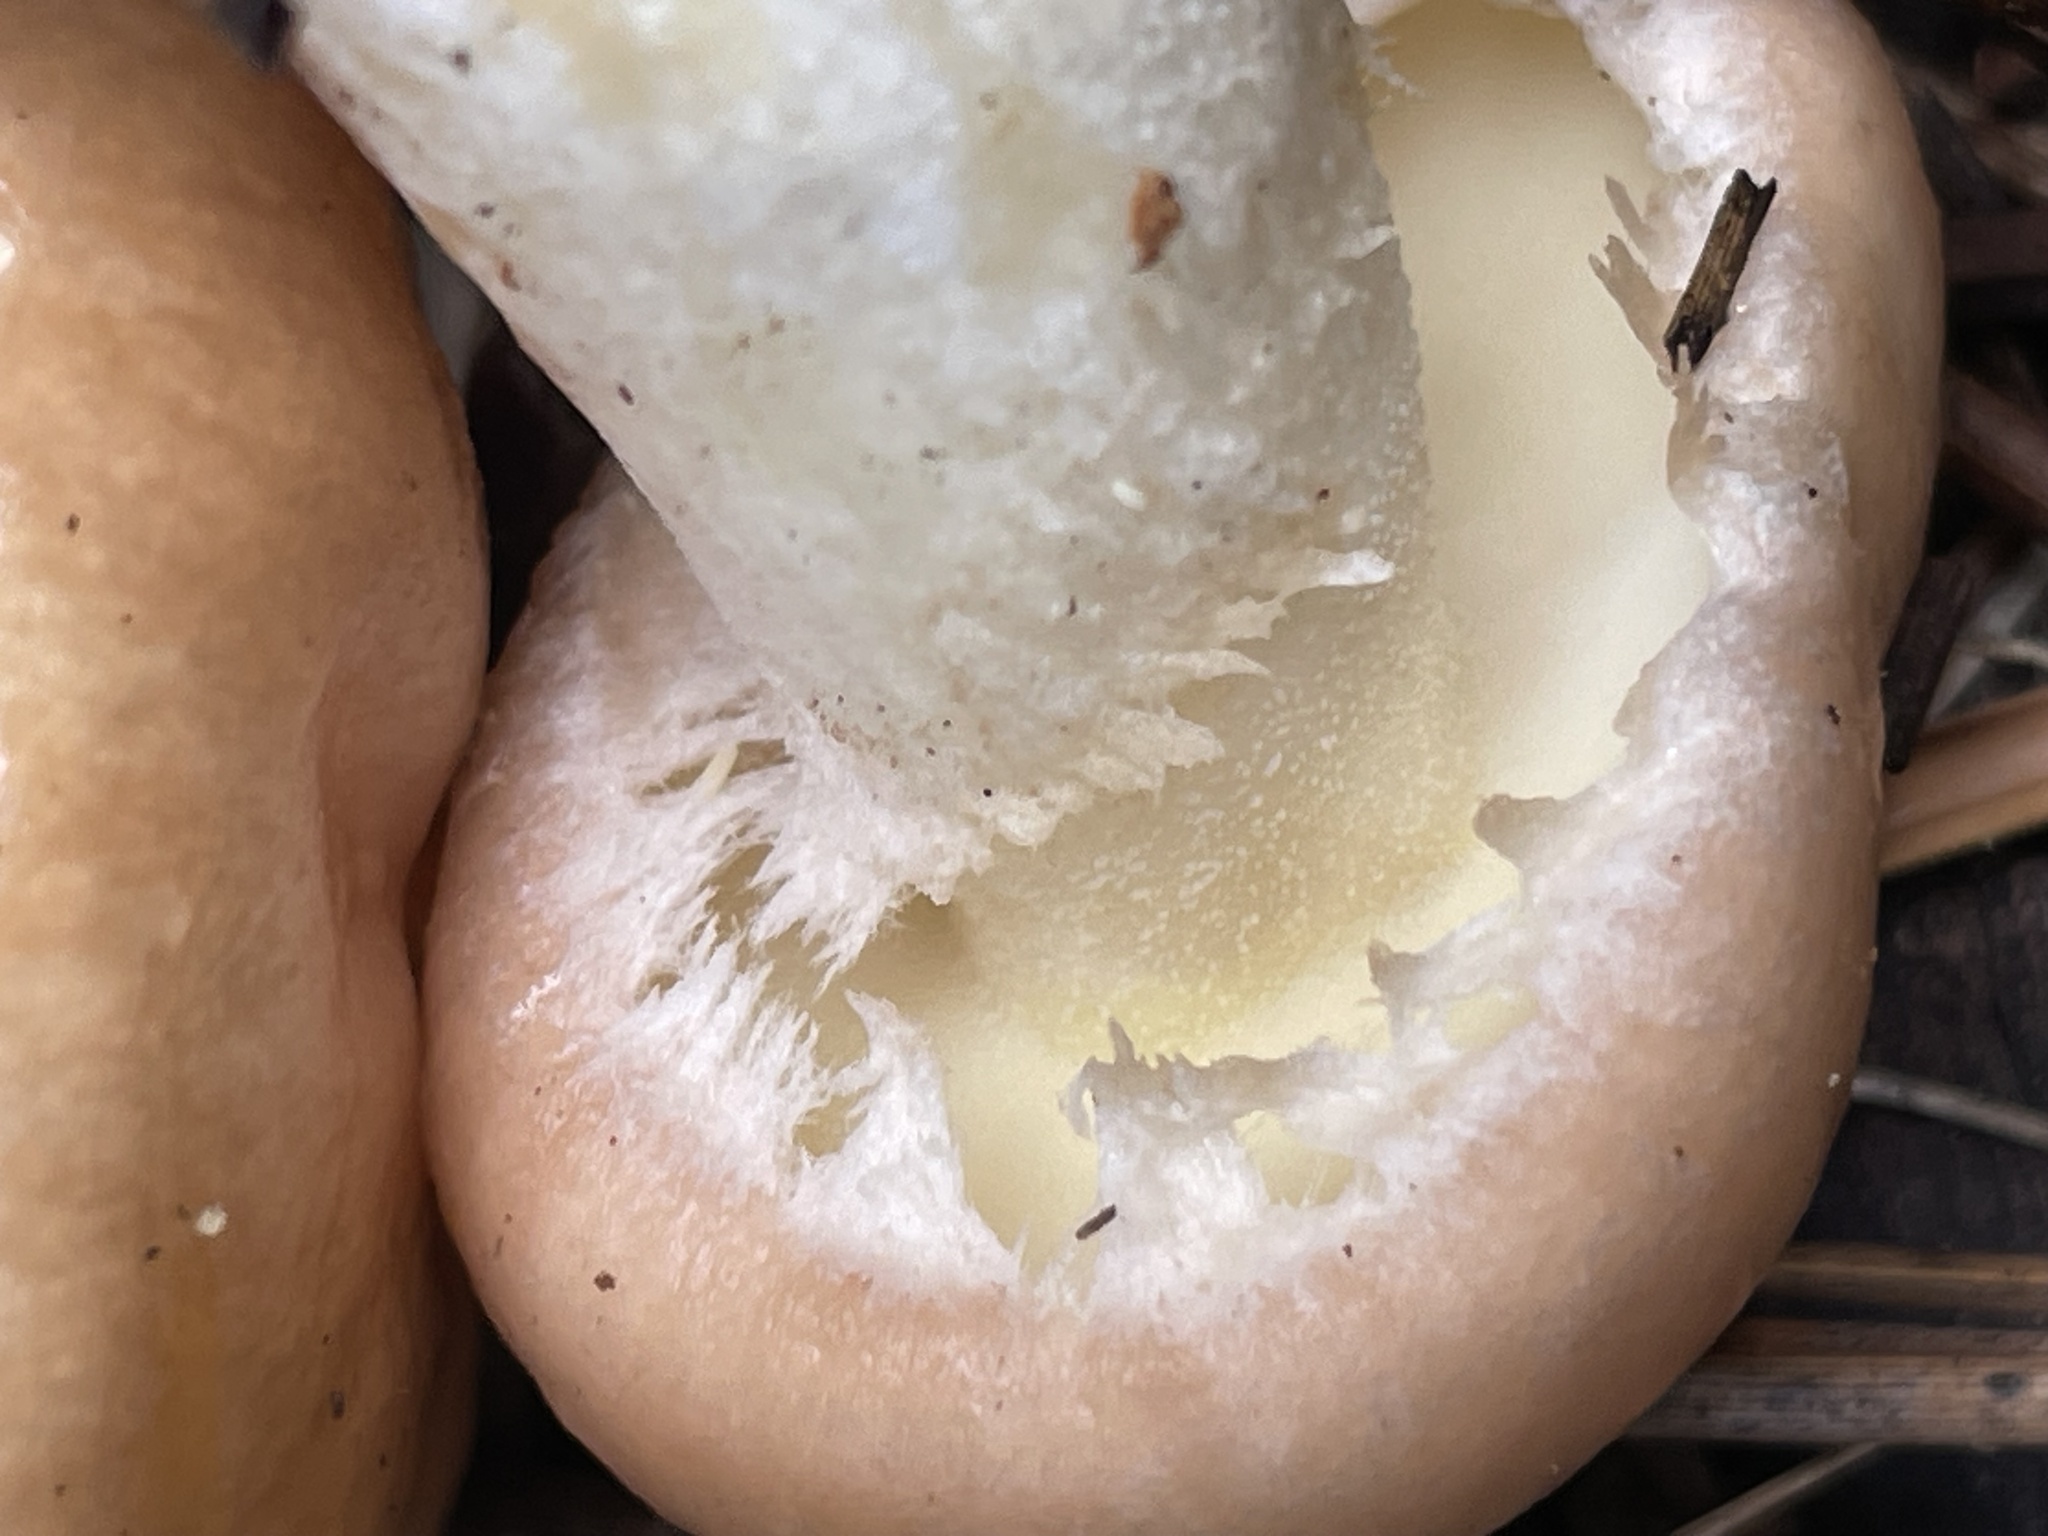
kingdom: Fungi
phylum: Basidiomycota
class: Agaricomycetes
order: Boletales
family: Suillaceae
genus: Suillus
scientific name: Suillus occidentalis
